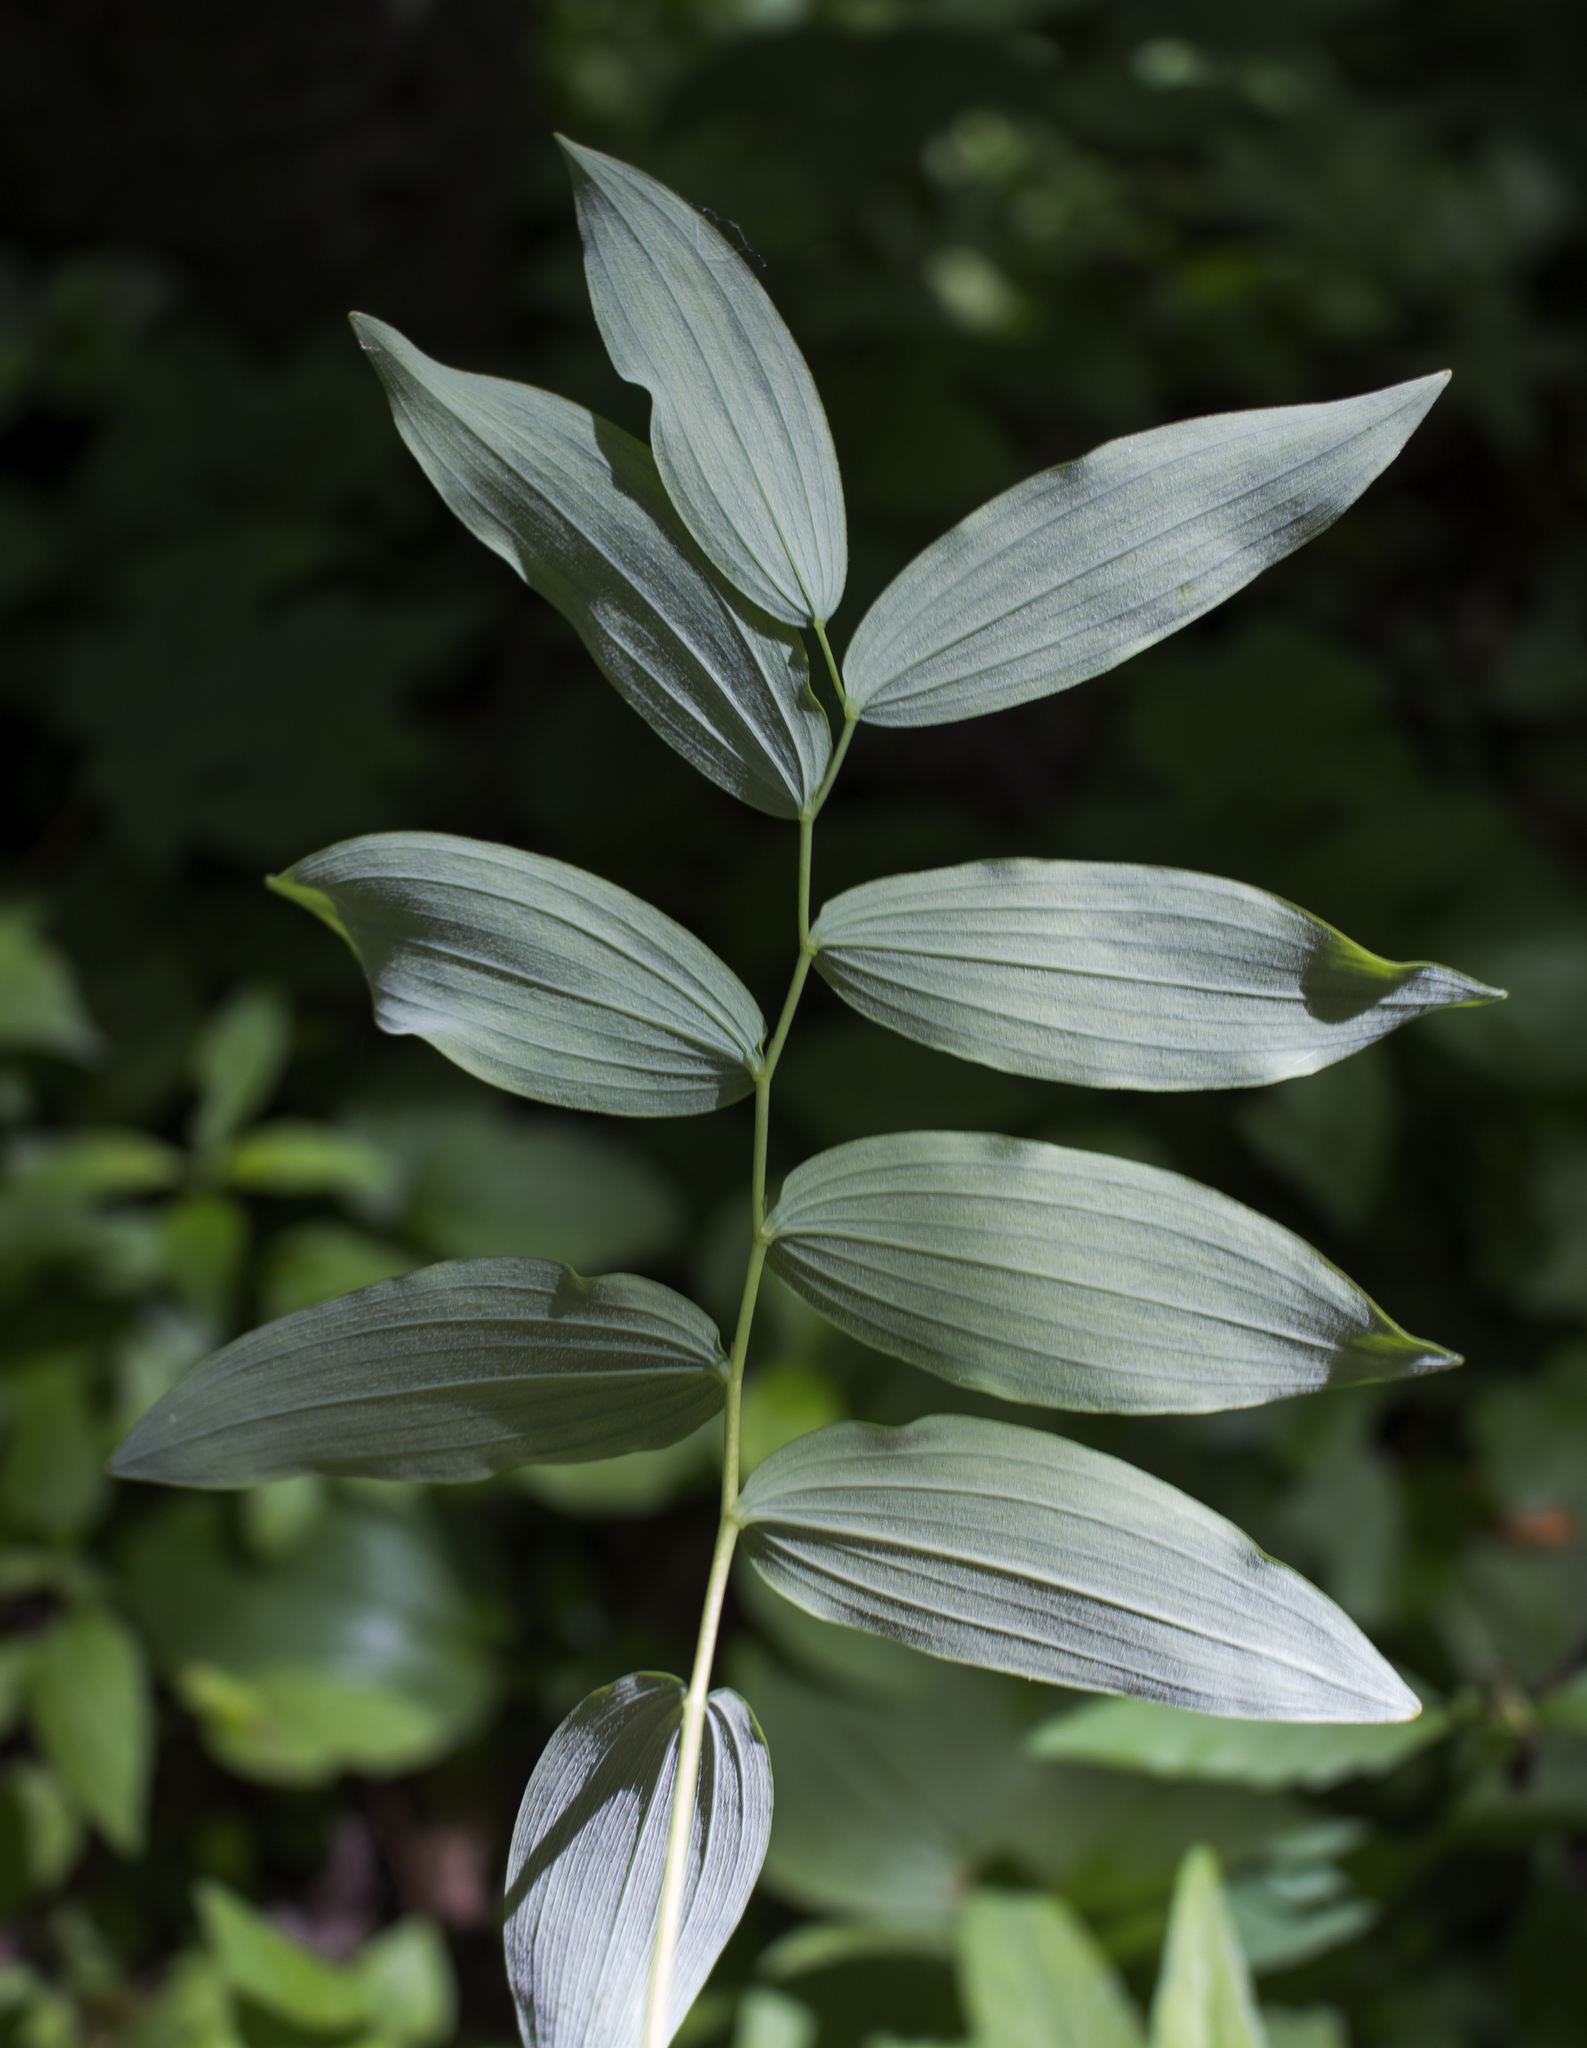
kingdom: Plantae
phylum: Tracheophyta
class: Liliopsida
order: Asparagales
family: Asparagaceae
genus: Polygonatum
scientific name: Polygonatum pubescens
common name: Downy solomon's seal
